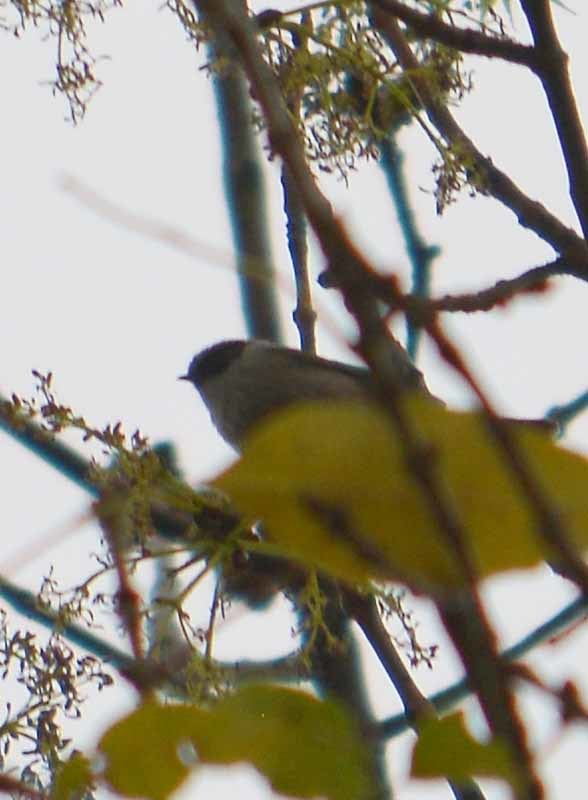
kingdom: Animalia
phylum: Chordata
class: Aves
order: Passeriformes
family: Aegithalidae
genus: Psaltriparus
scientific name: Psaltriparus minimus
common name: American bushtit
